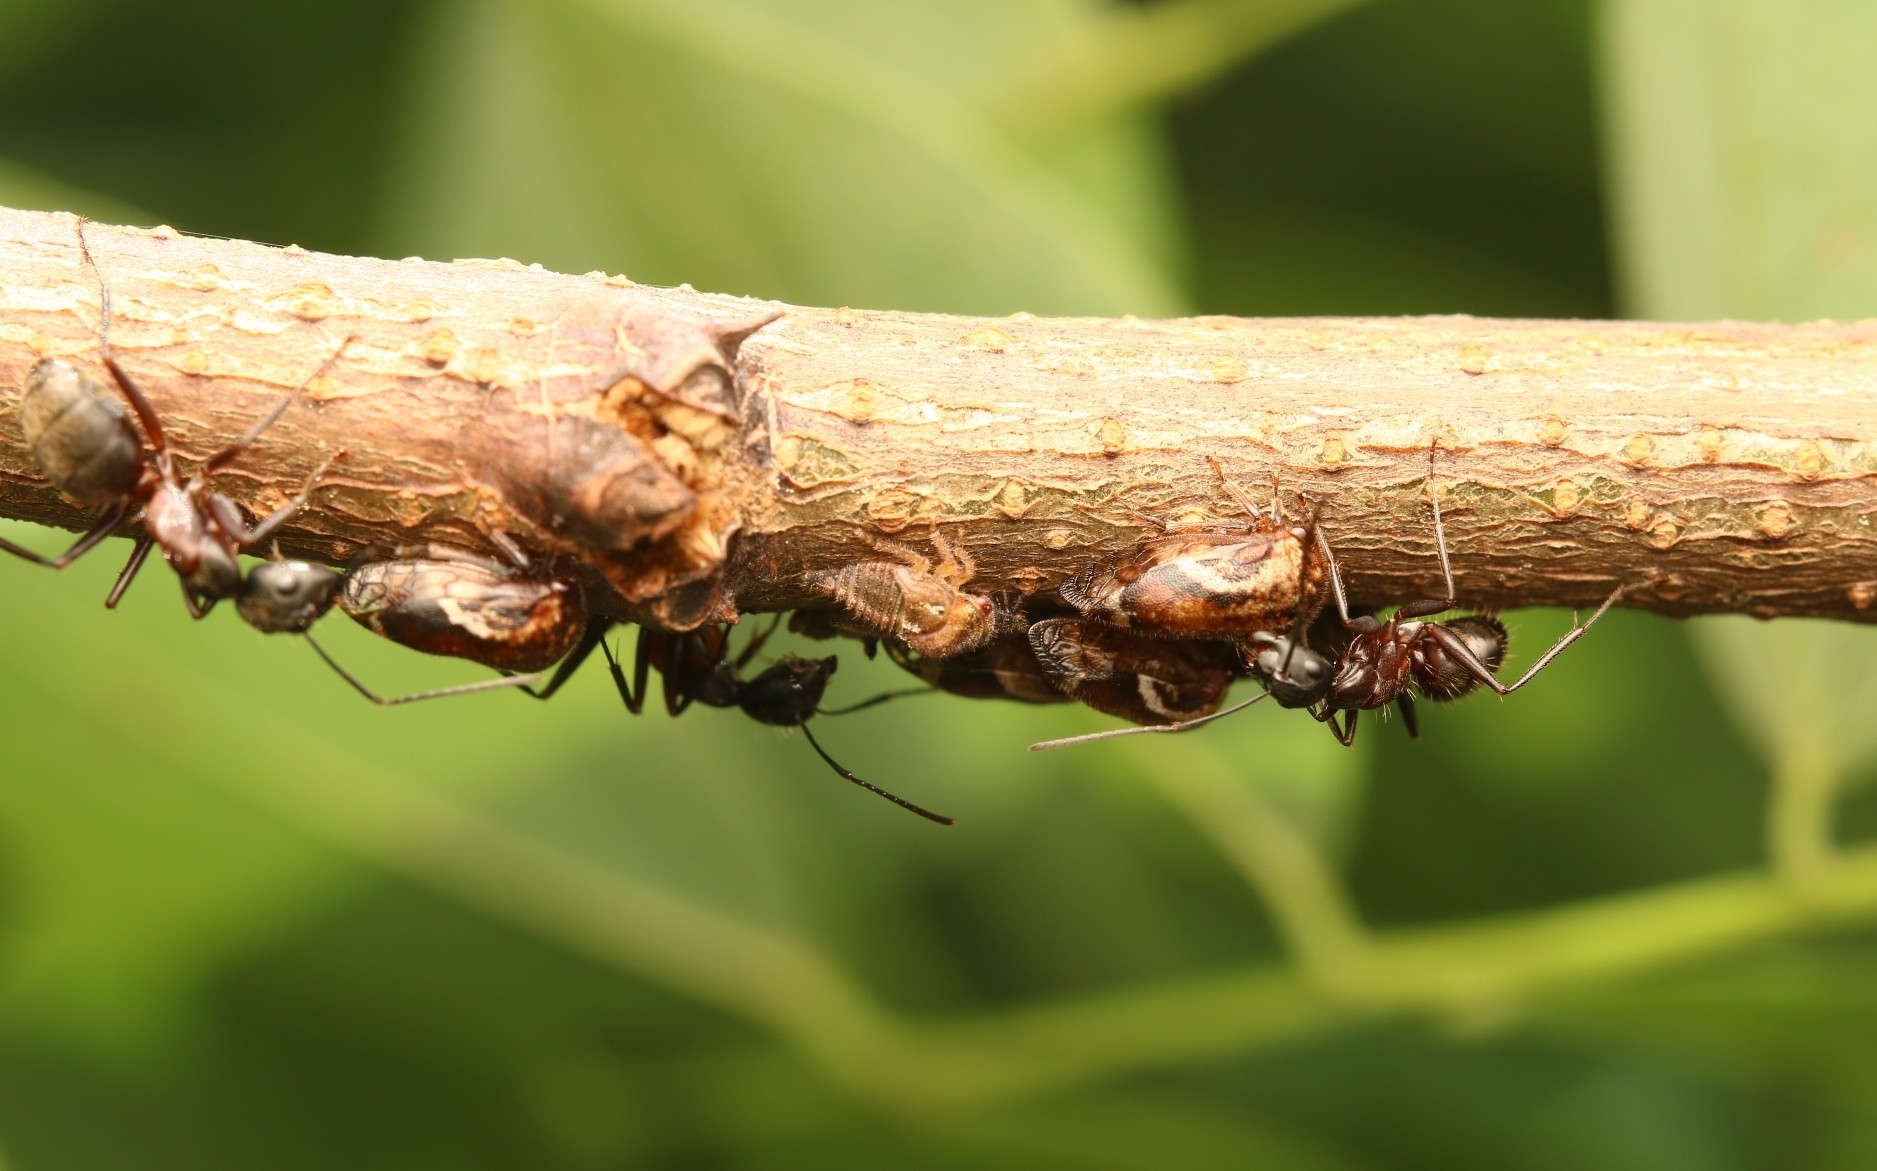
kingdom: Animalia
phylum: Arthropoda
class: Insecta
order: Hemiptera
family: Membracidae
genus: Vanduzea
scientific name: Vanduzea arquata
